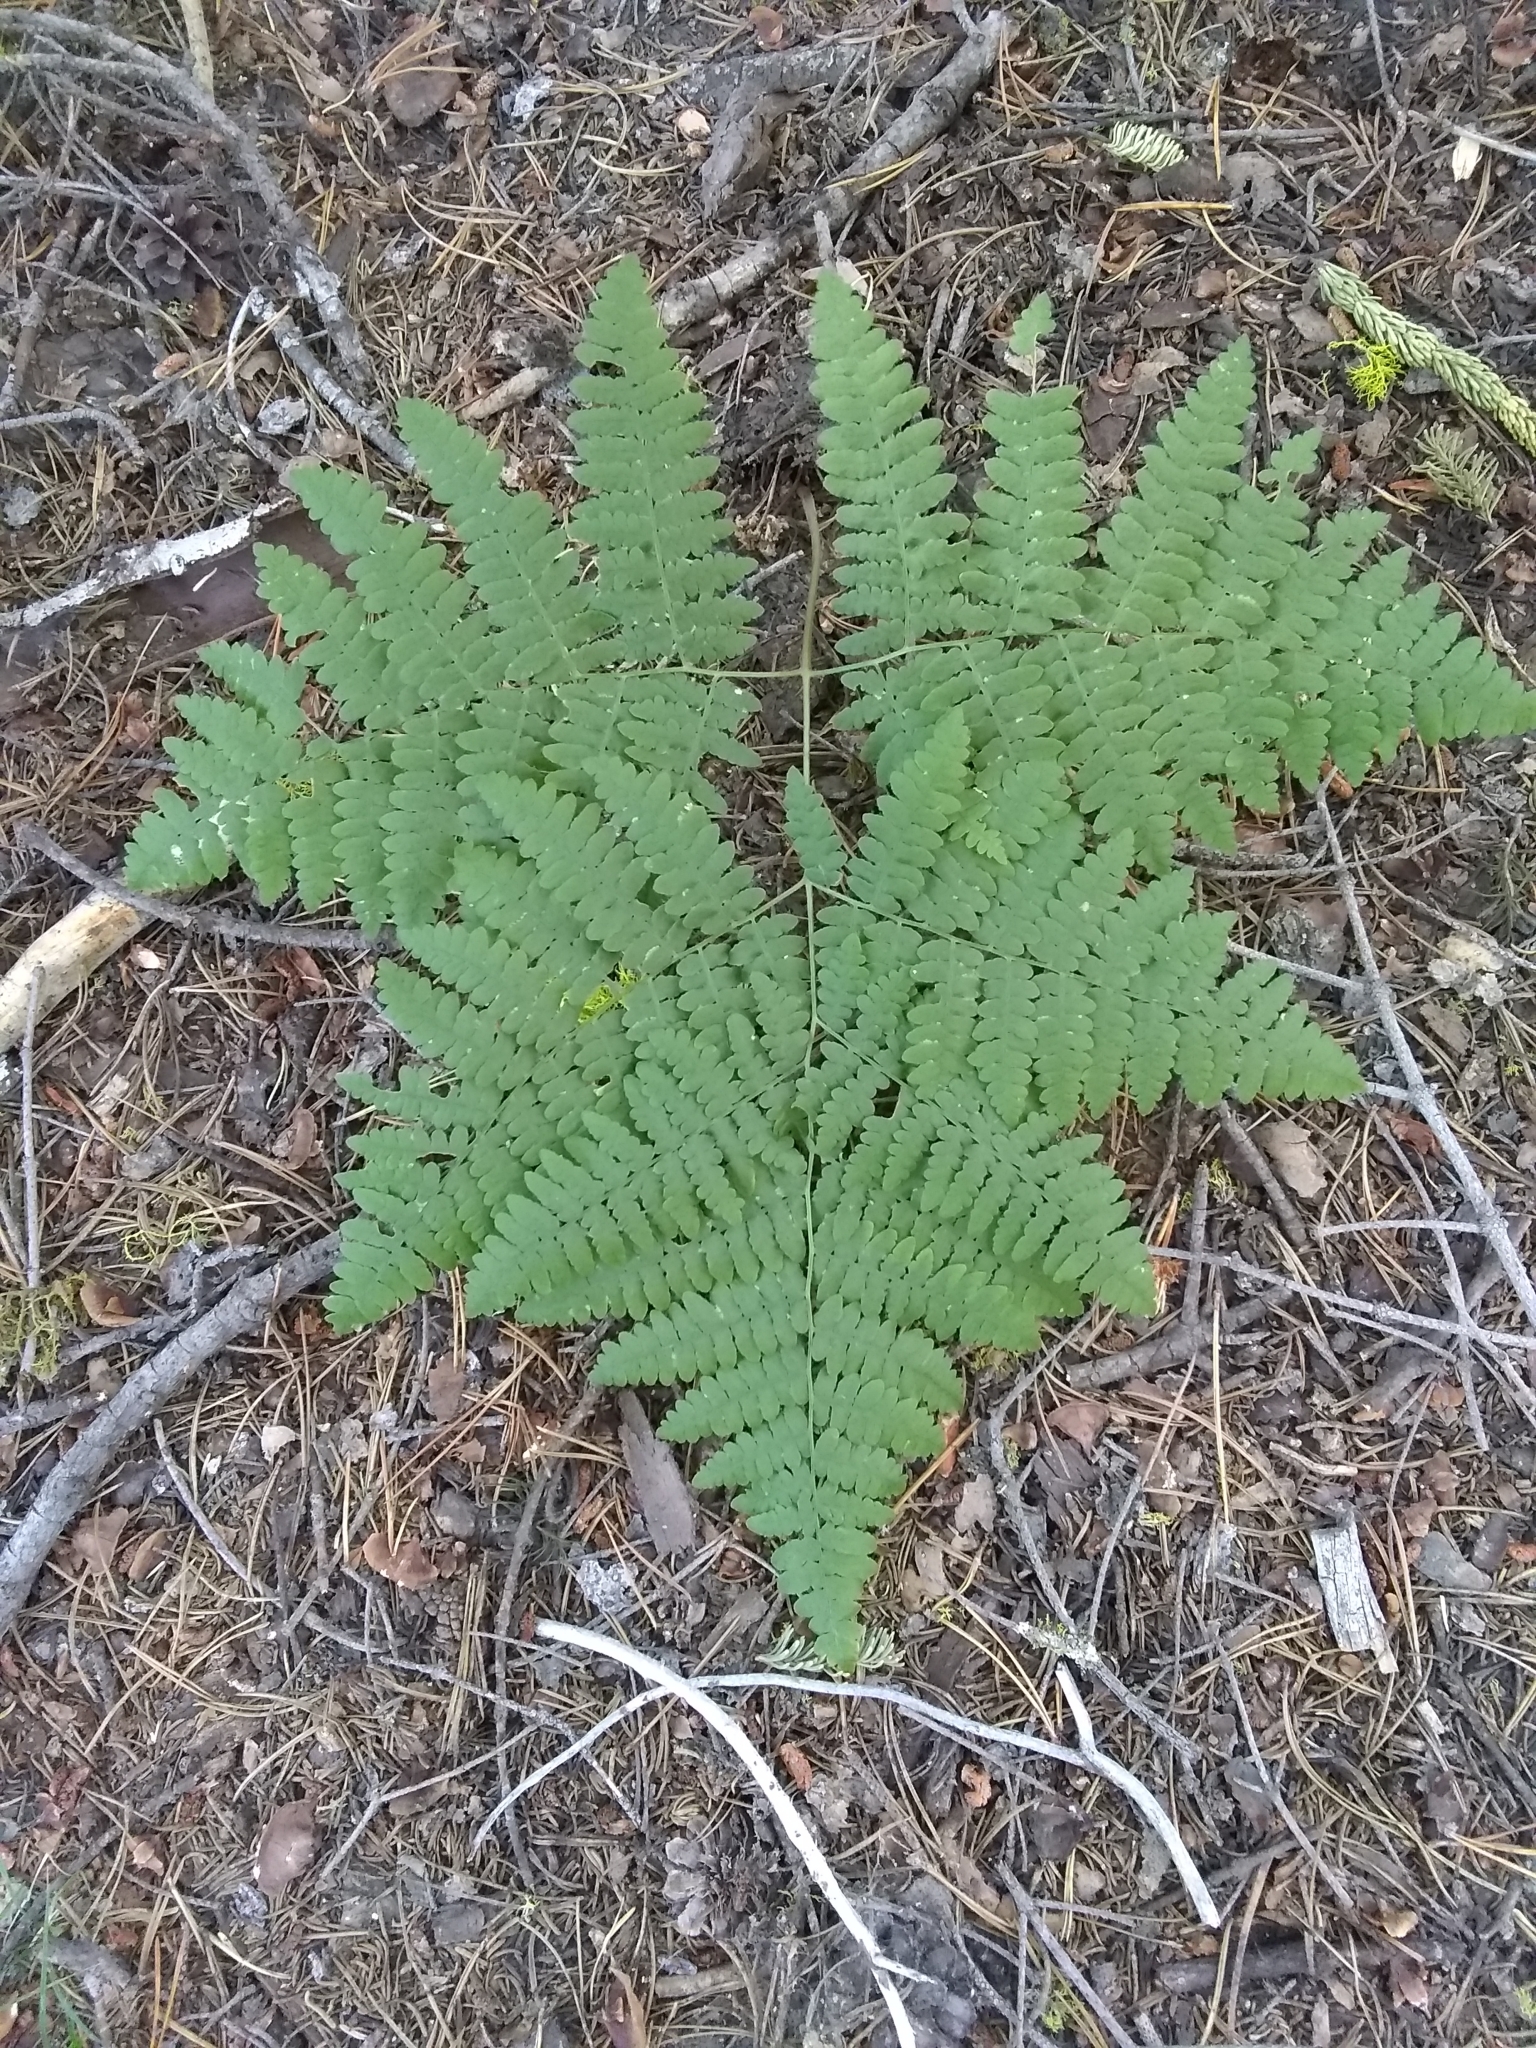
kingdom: Plantae
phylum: Tracheophyta
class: Polypodiopsida
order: Polypodiales
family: Dennstaedtiaceae
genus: Pteridium
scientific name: Pteridium aquilinum
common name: Bracken
